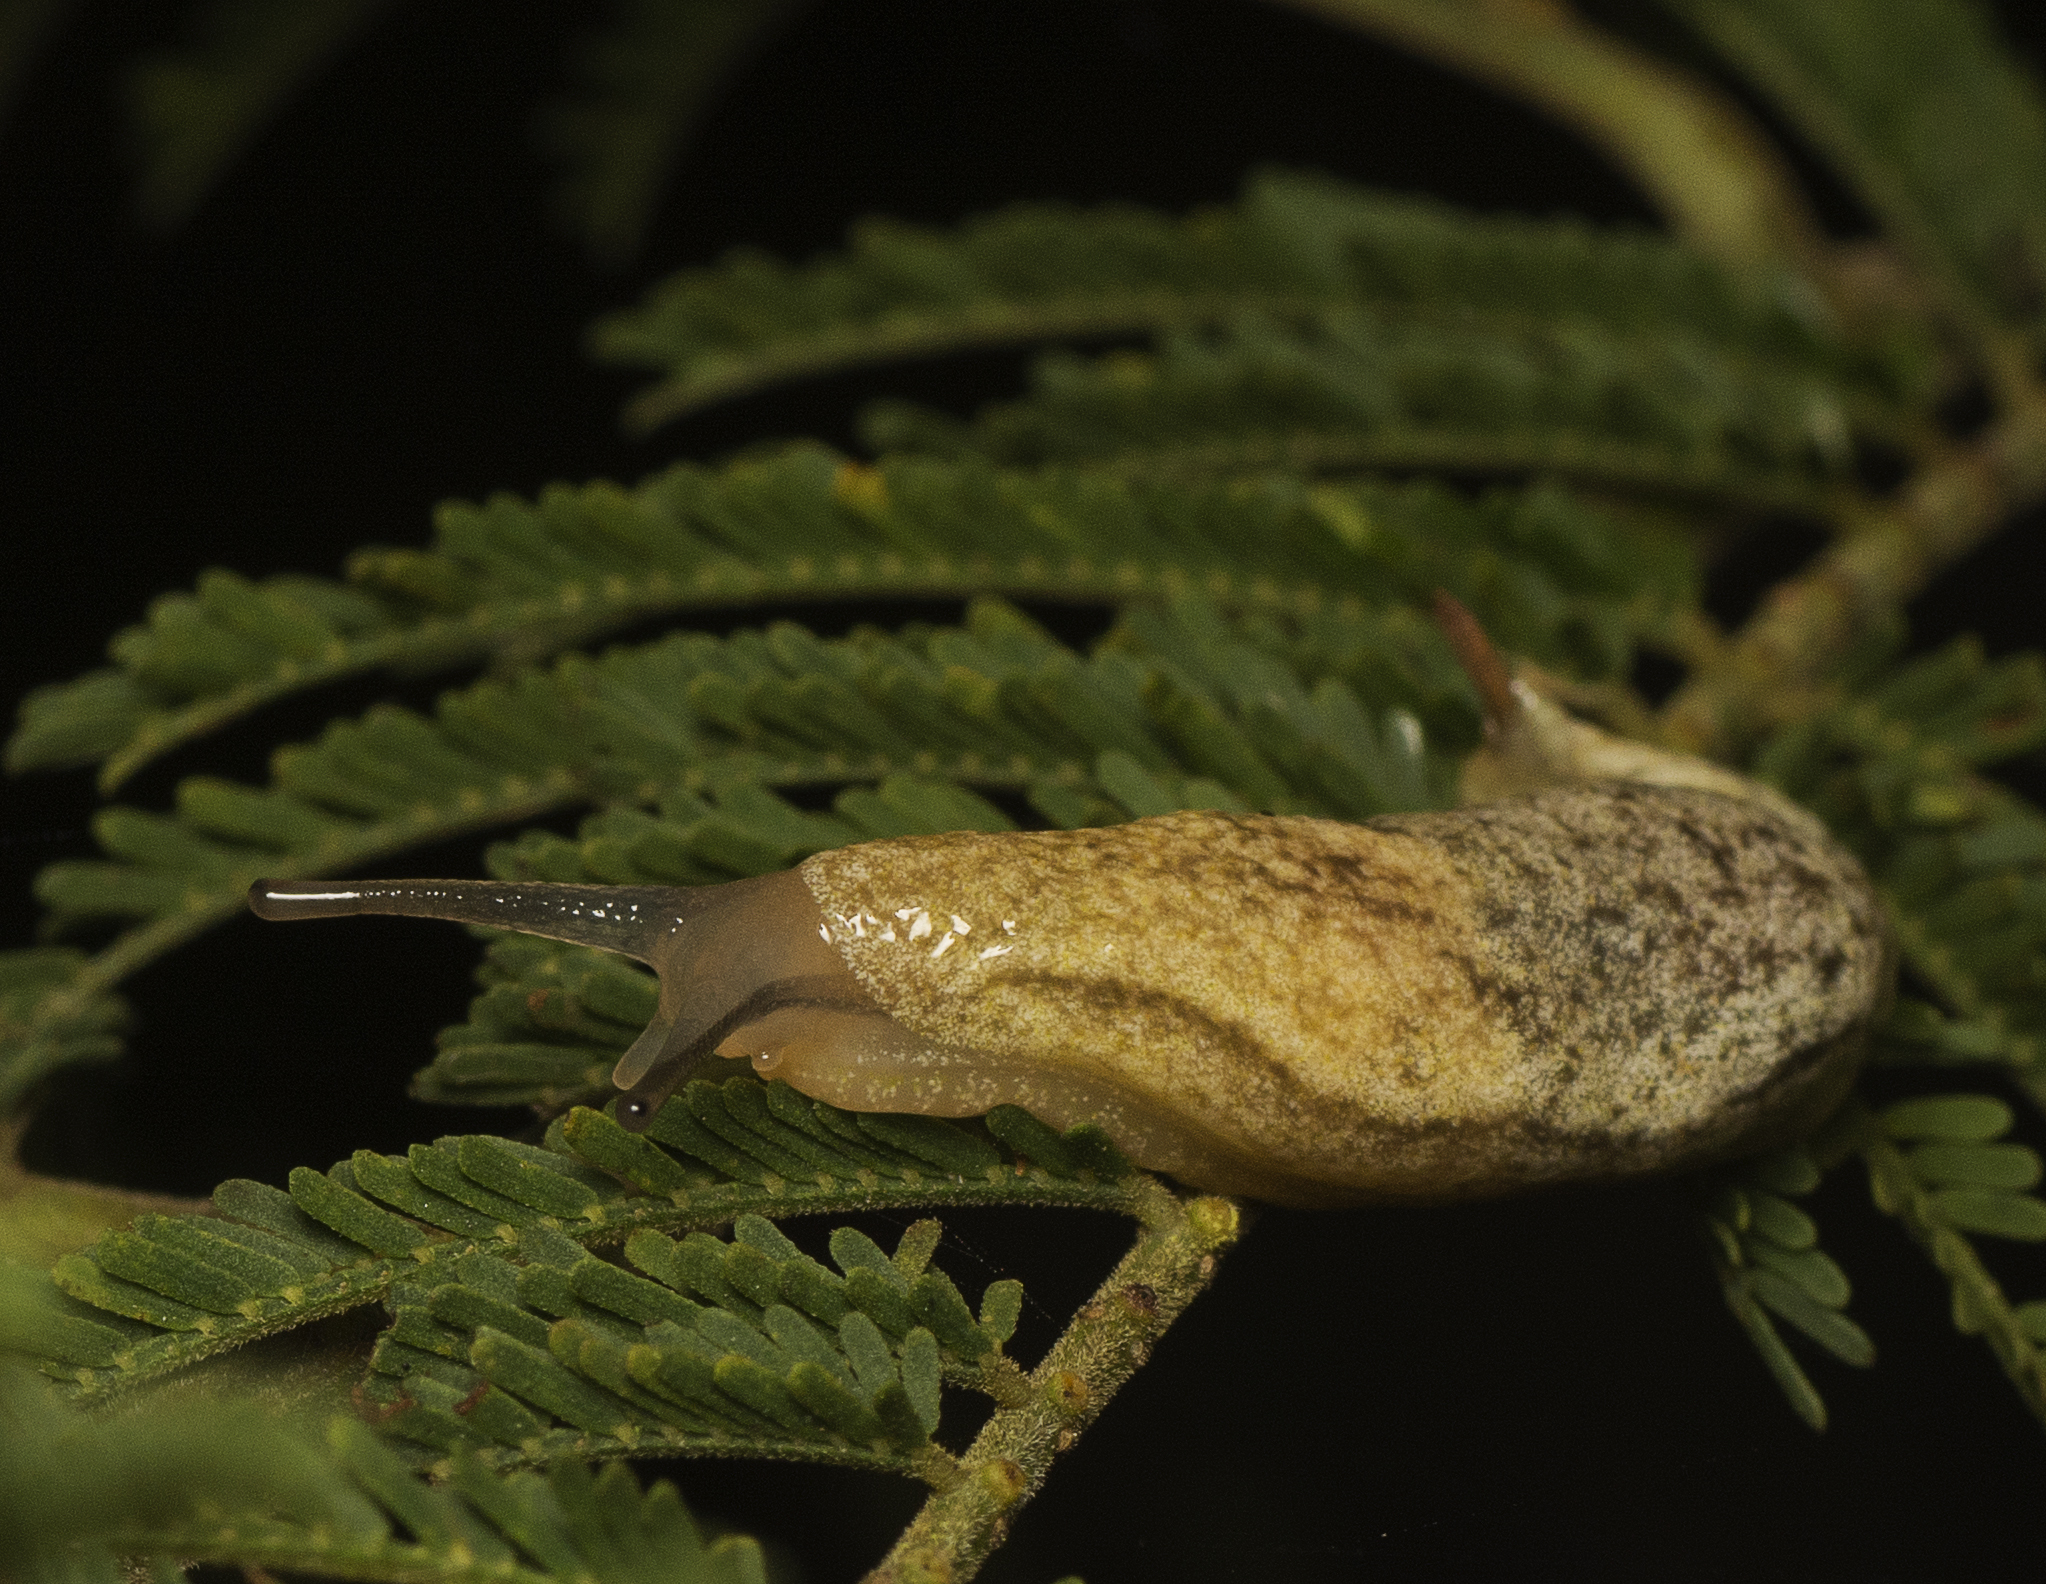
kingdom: Animalia
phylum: Mollusca
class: Gastropoda
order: Stylommatophora
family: Cystopeltidae
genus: Cystopelta
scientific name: Cystopelta astra
